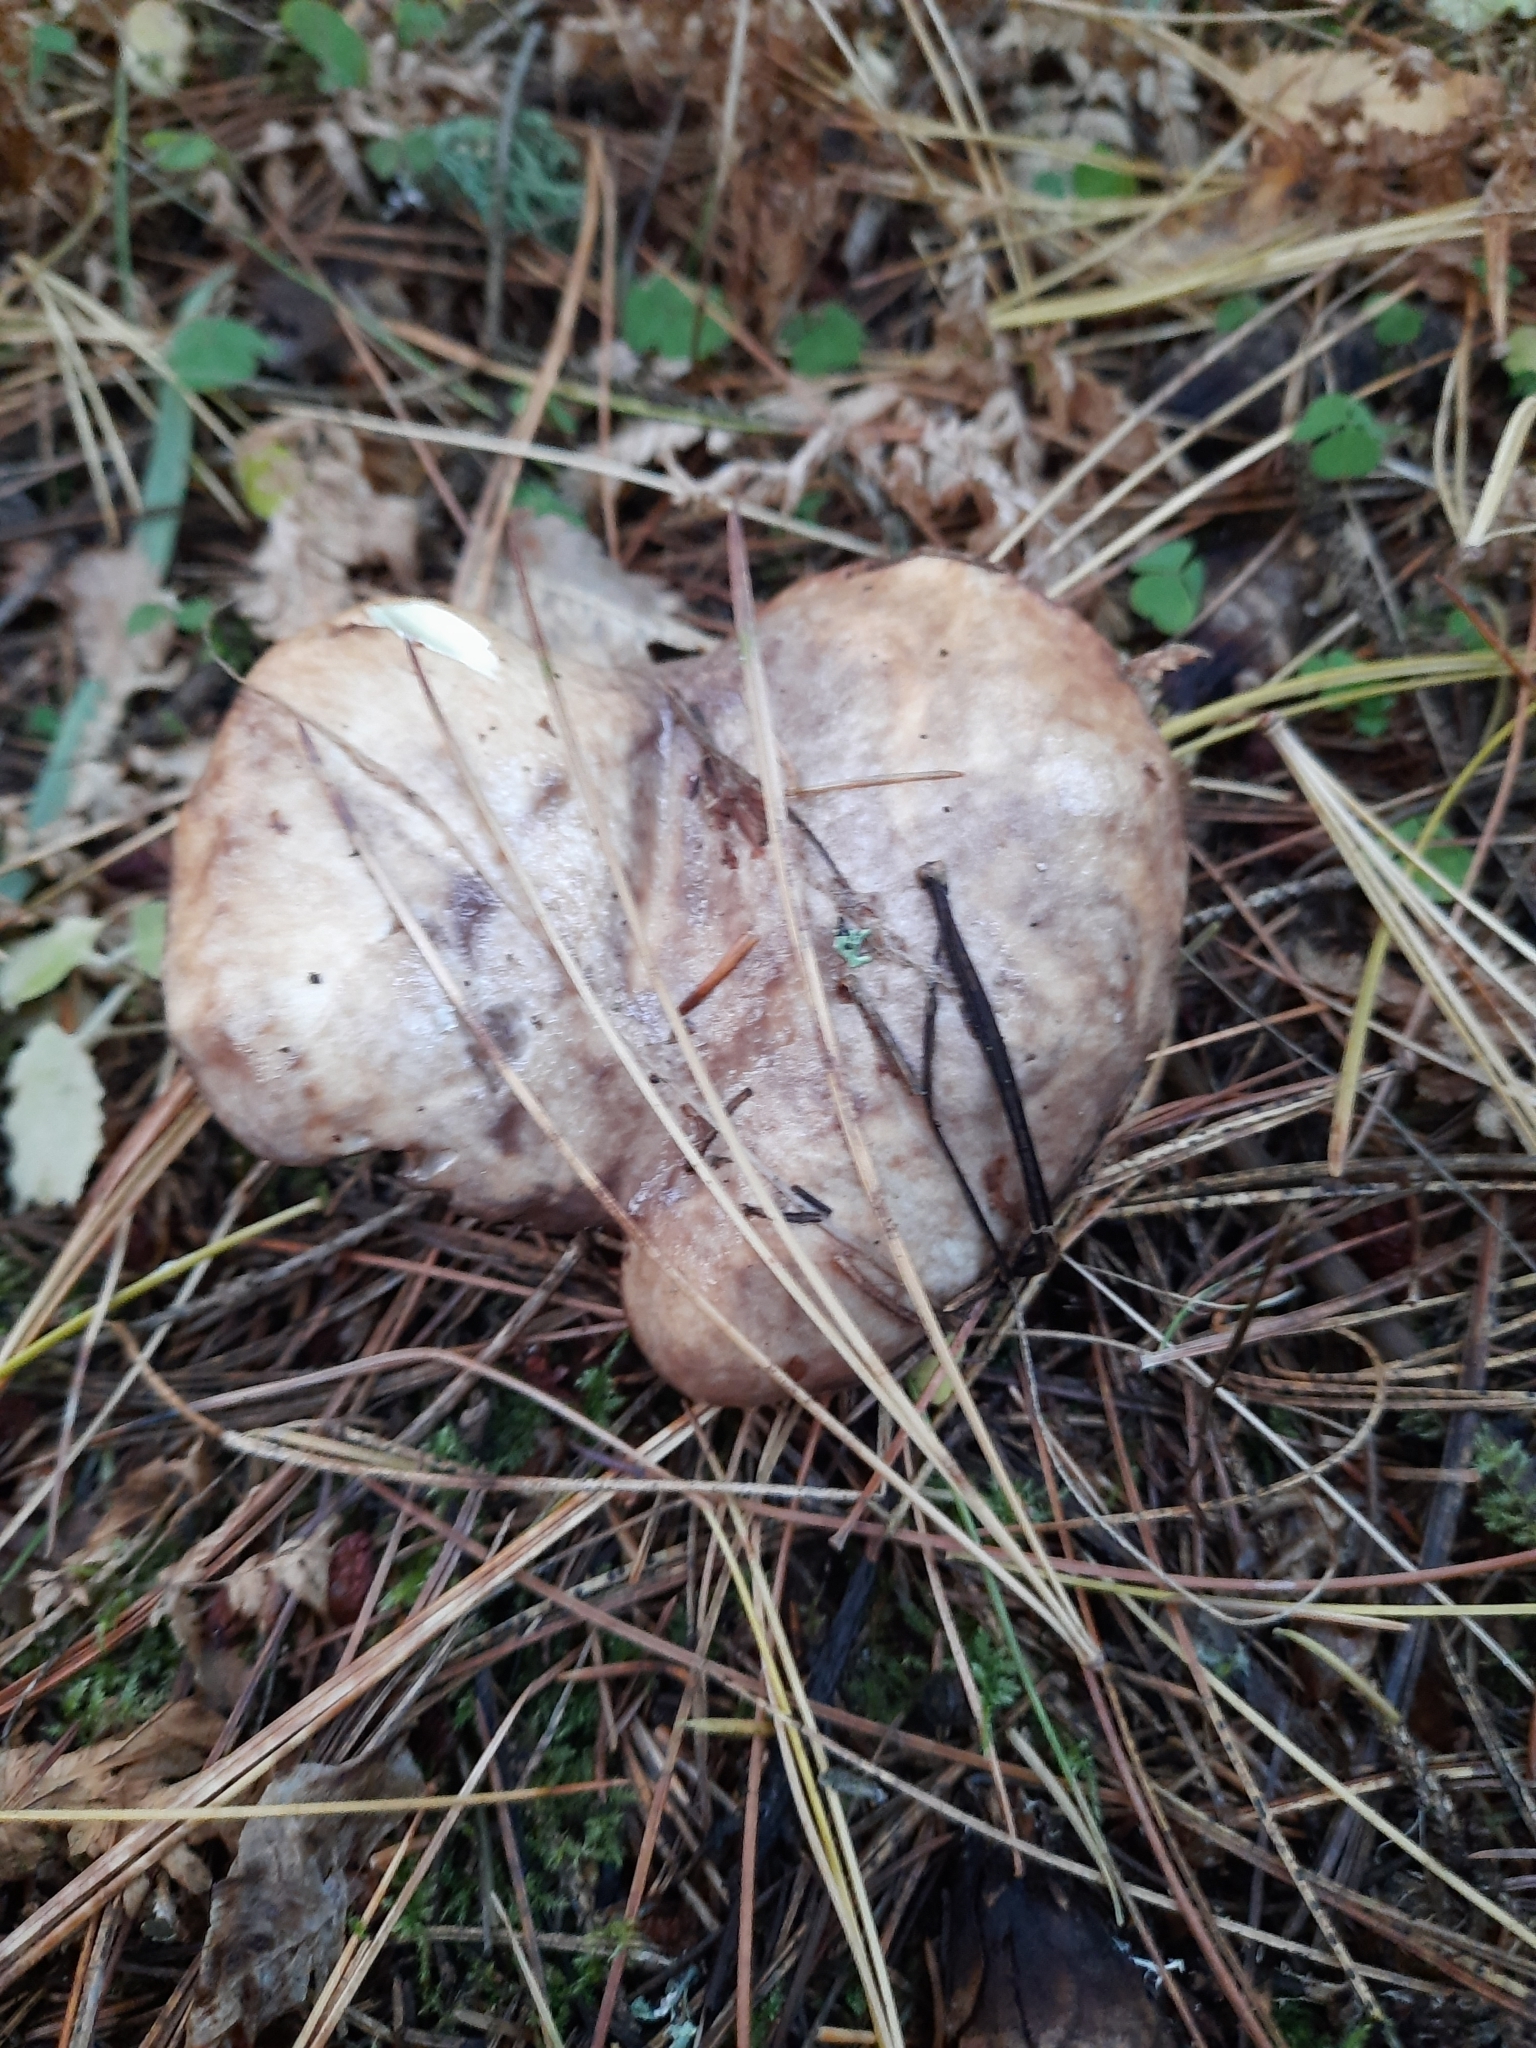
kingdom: Fungi
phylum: Basidiomycota
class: Agaricomycetes
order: Boletales
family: Suillaceae
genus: Suillus
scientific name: Suillus placidus
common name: Slippery white bolete
